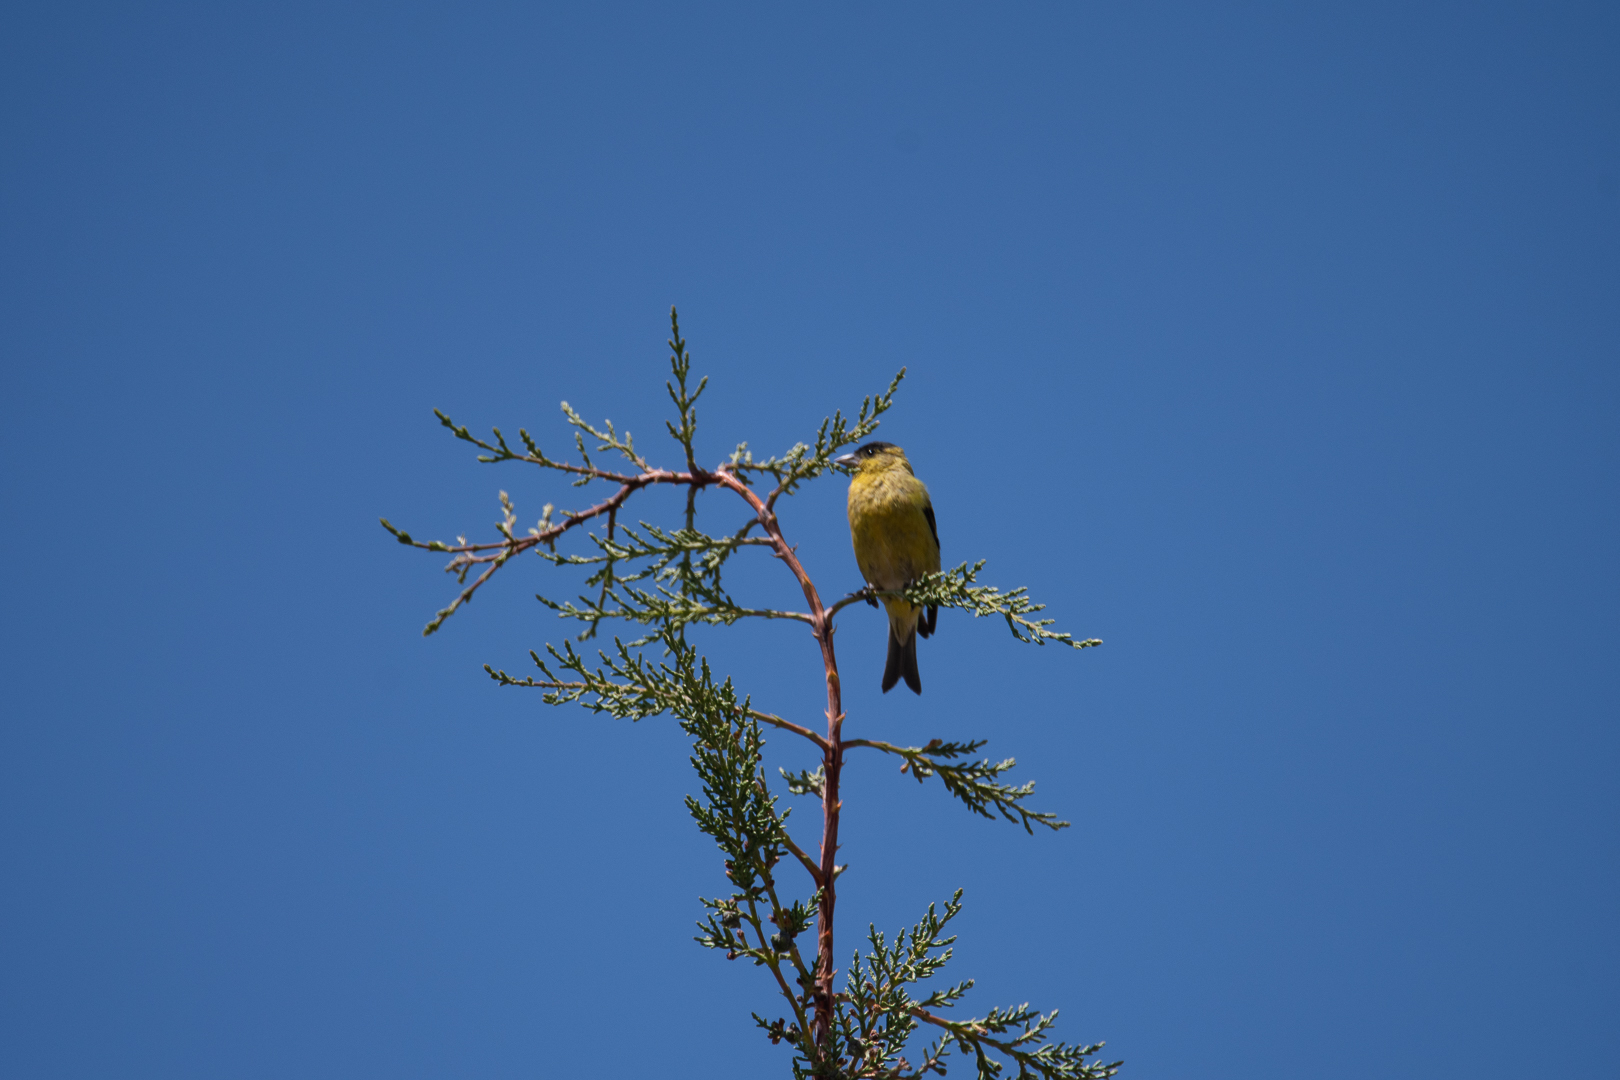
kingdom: Animalia
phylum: Chordata
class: Aves
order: Passeriformes
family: Fringillidae
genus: Spinus
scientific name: Spinus barbatus
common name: Black-chinned siskin
